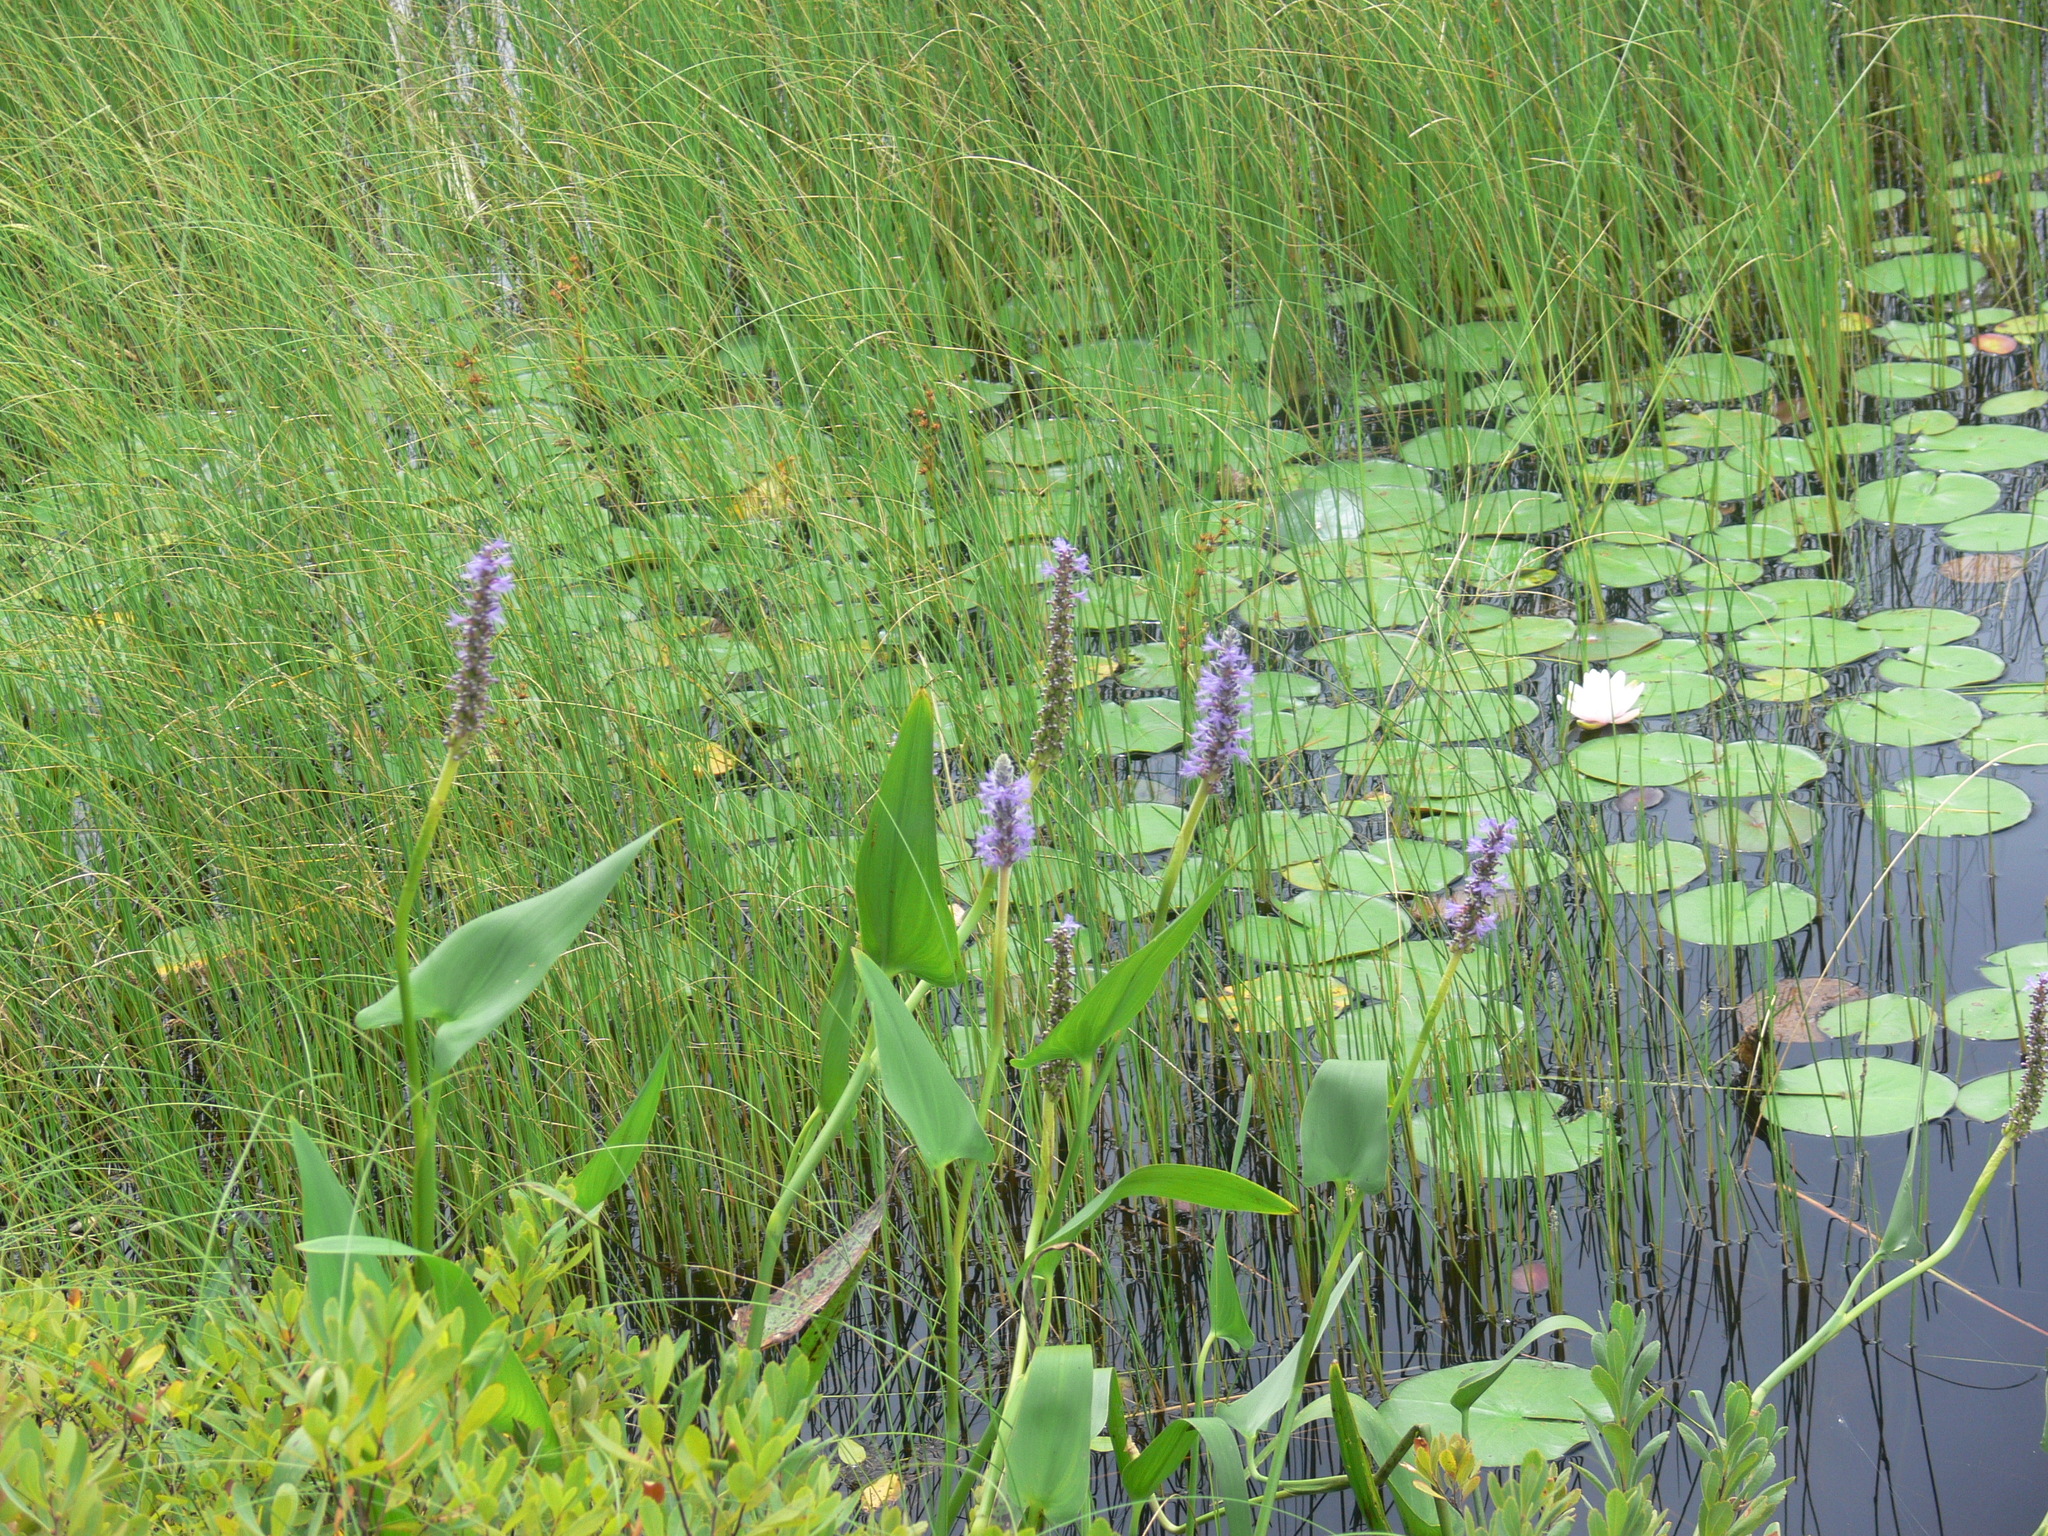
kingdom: Plantae
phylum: Tracheophyta
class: Liliopsida
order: Commelinales
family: Pontederiaceae
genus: Pontederia
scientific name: Pontederia cordata
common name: Pickerelweed
